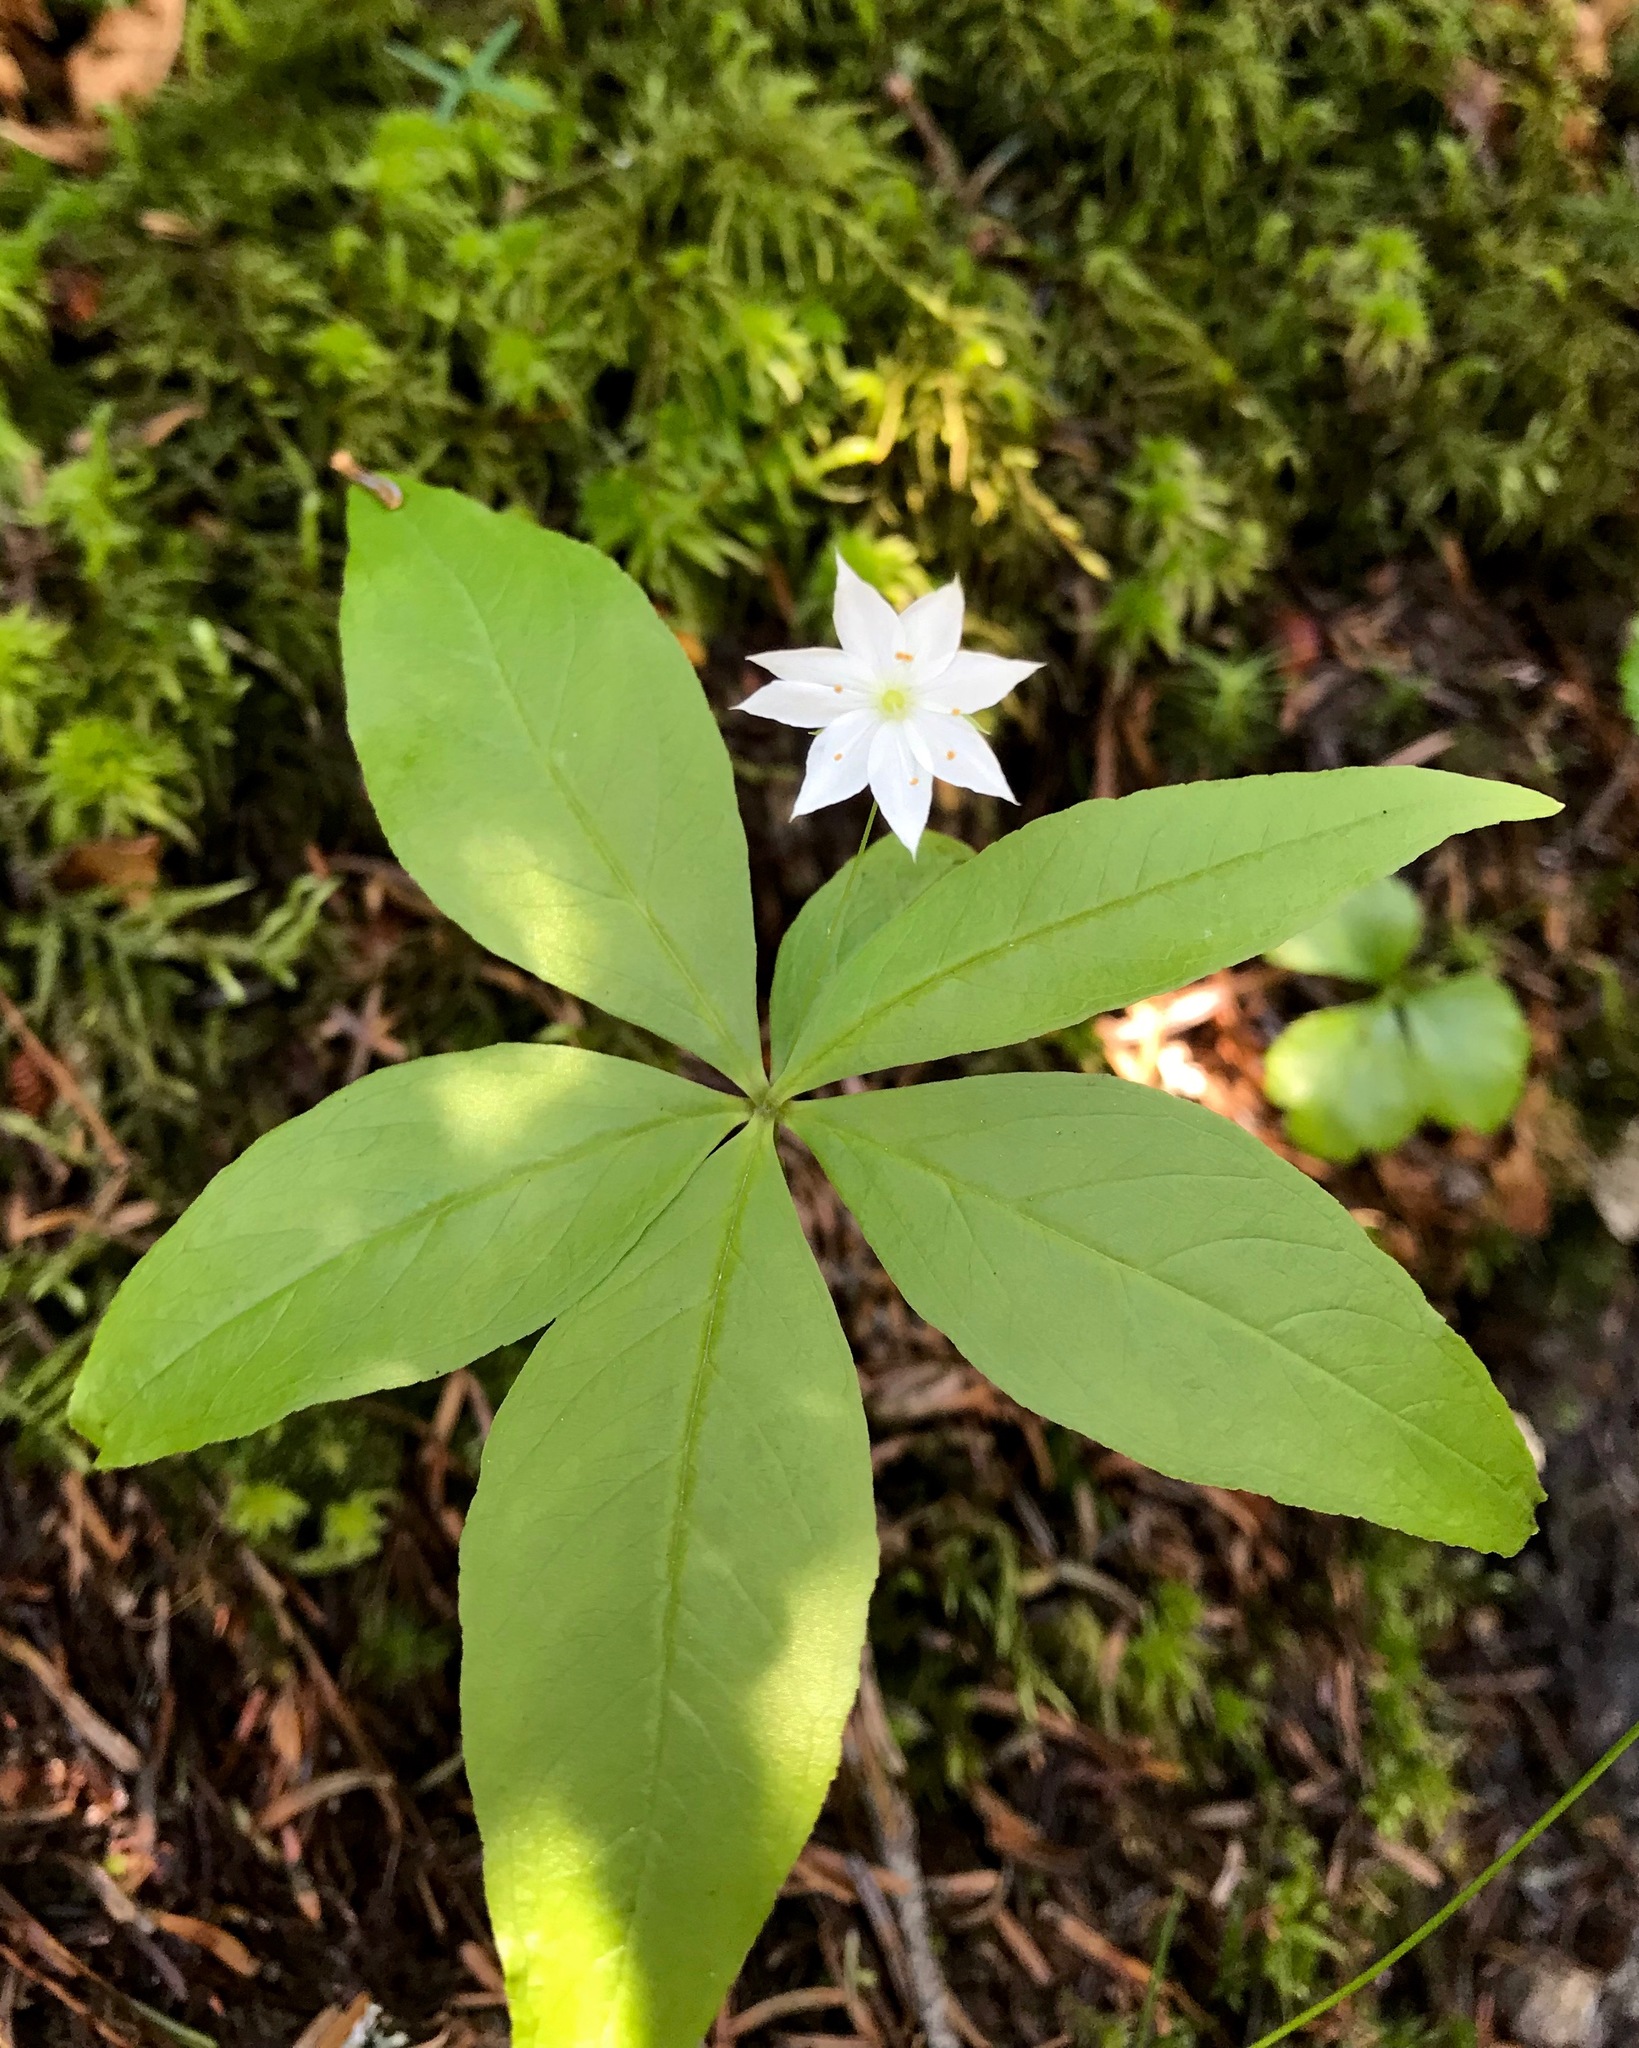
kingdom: Plantae
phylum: Tracheophyta
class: Magnoliopsida
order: Ericales
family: Primulaceae
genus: Lysimachia
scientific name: Lysimachia borealis
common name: American starflower
